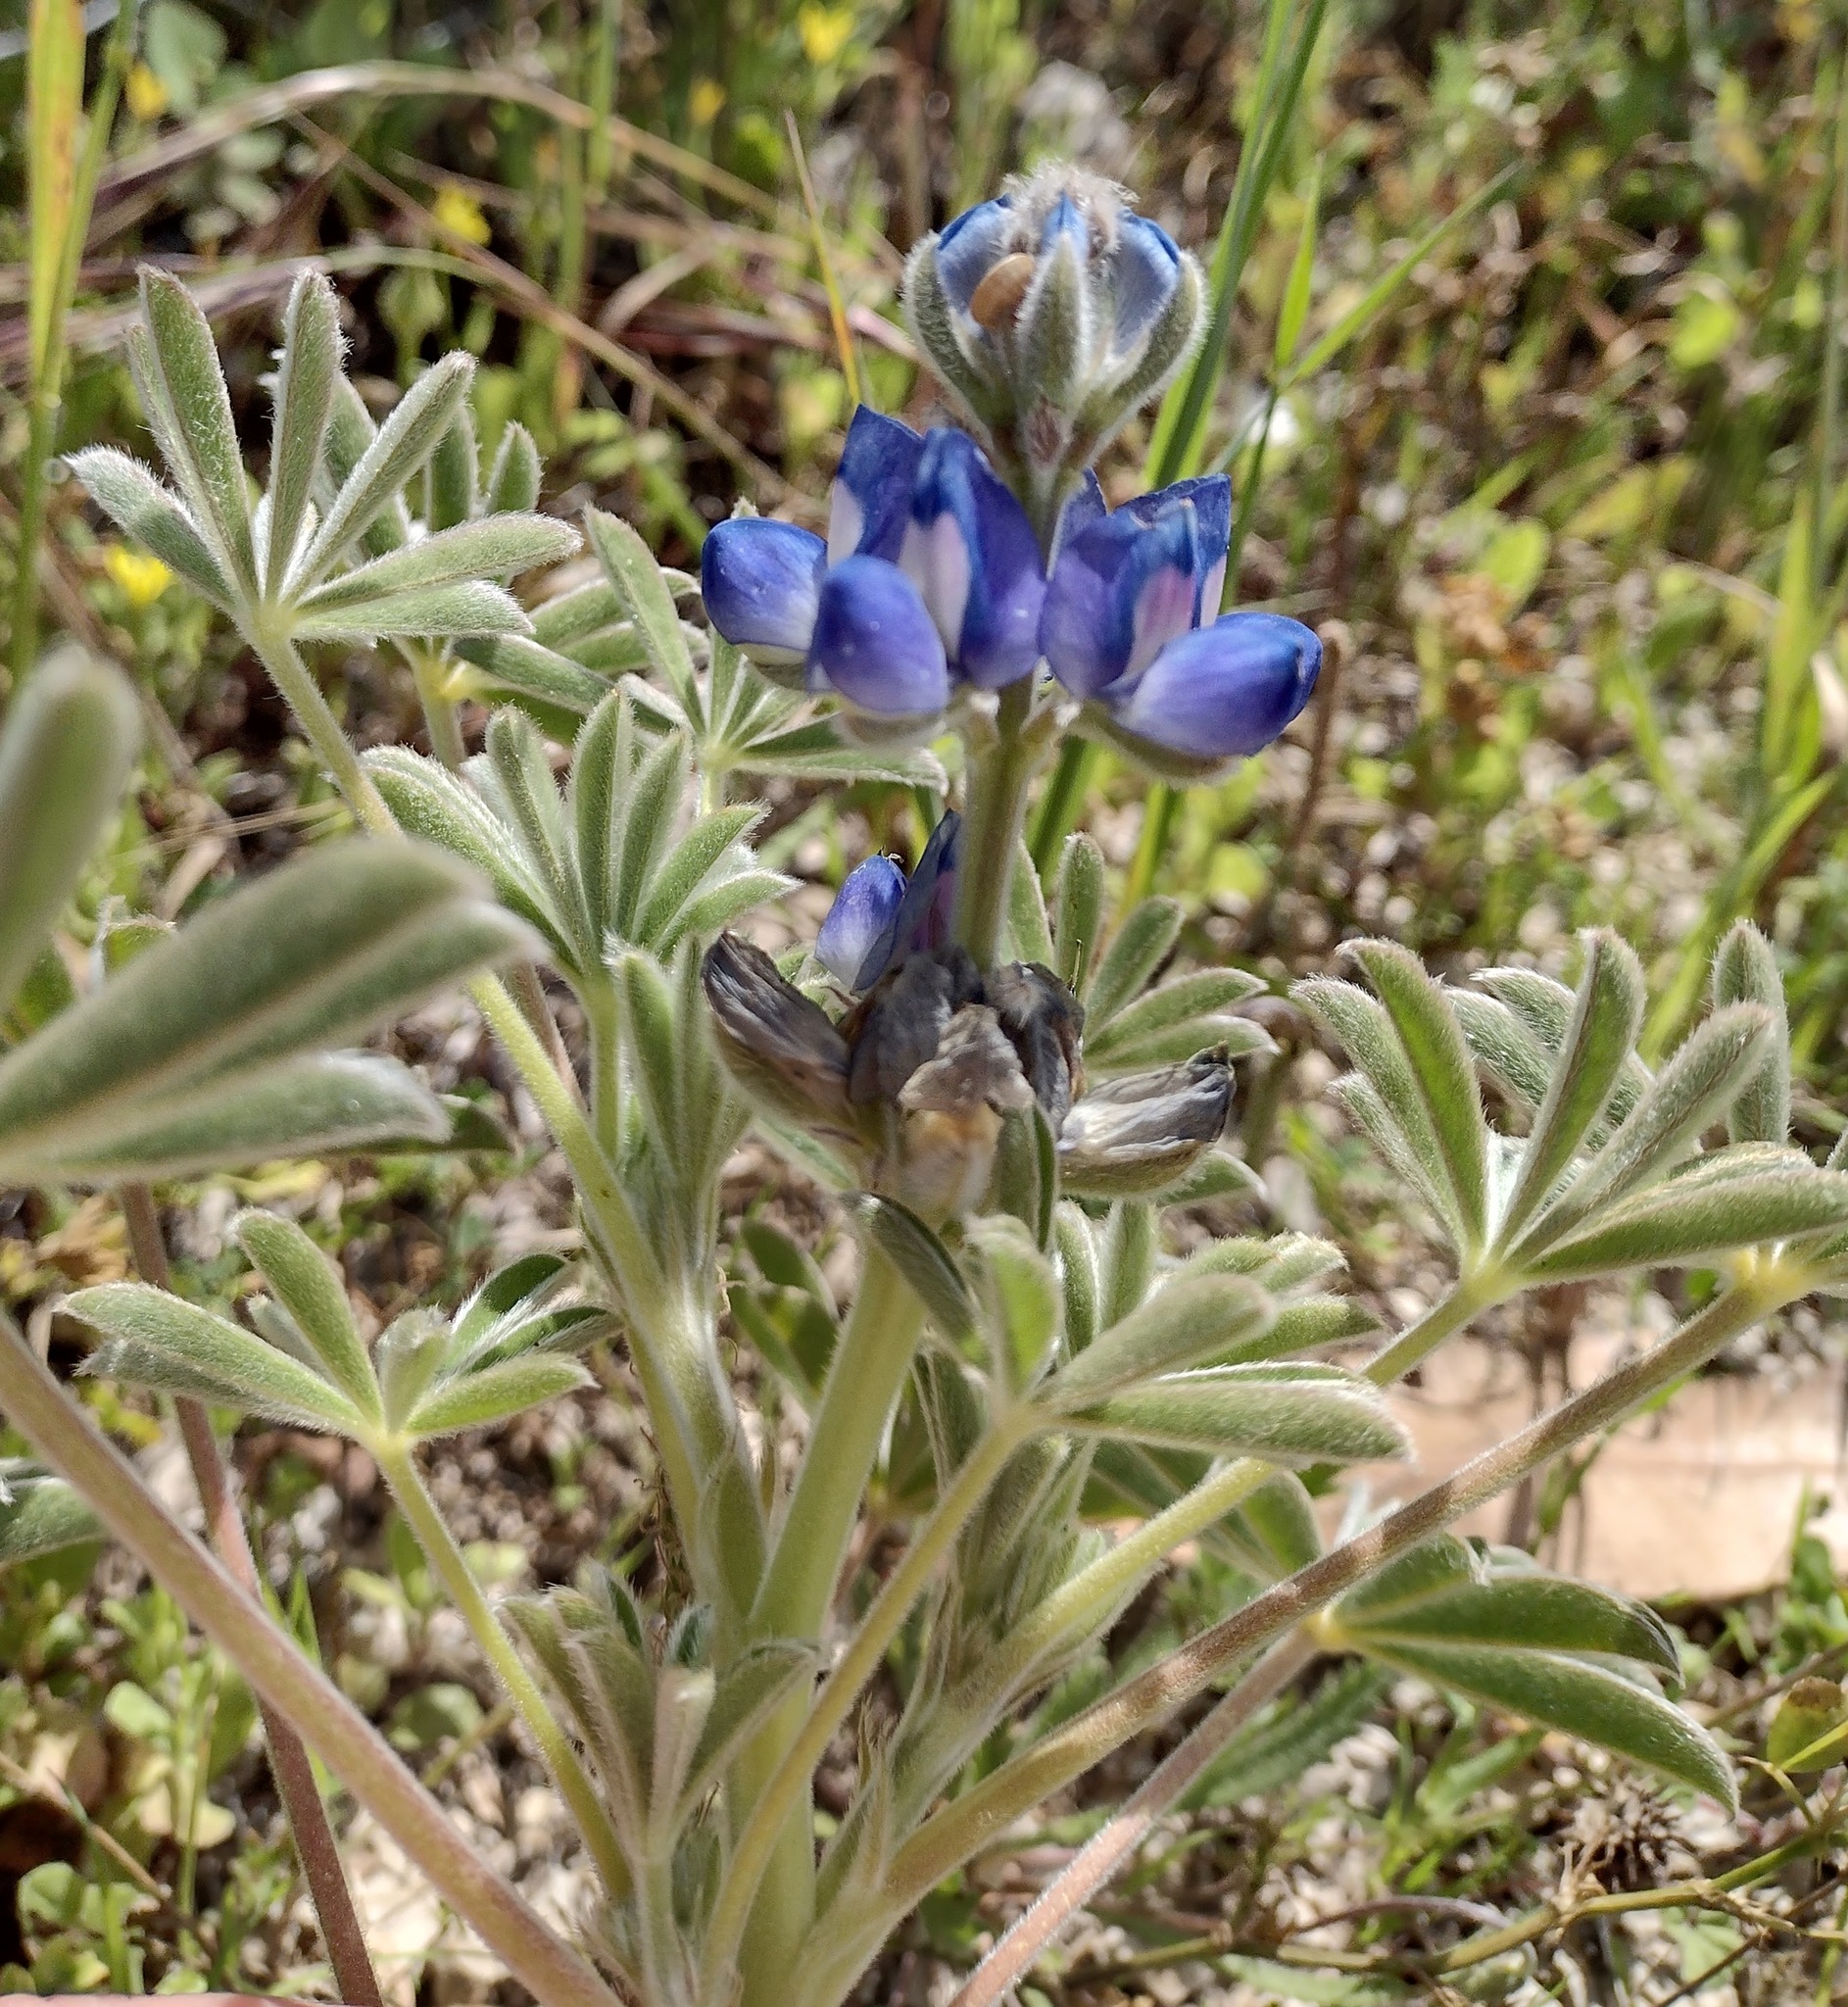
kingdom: Plantae
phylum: Tracheophyta
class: Magnoliopsida
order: Fabales
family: Fabaceae
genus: Lupinus
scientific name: Lupinus cosentinii
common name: Hairy blue lupin
